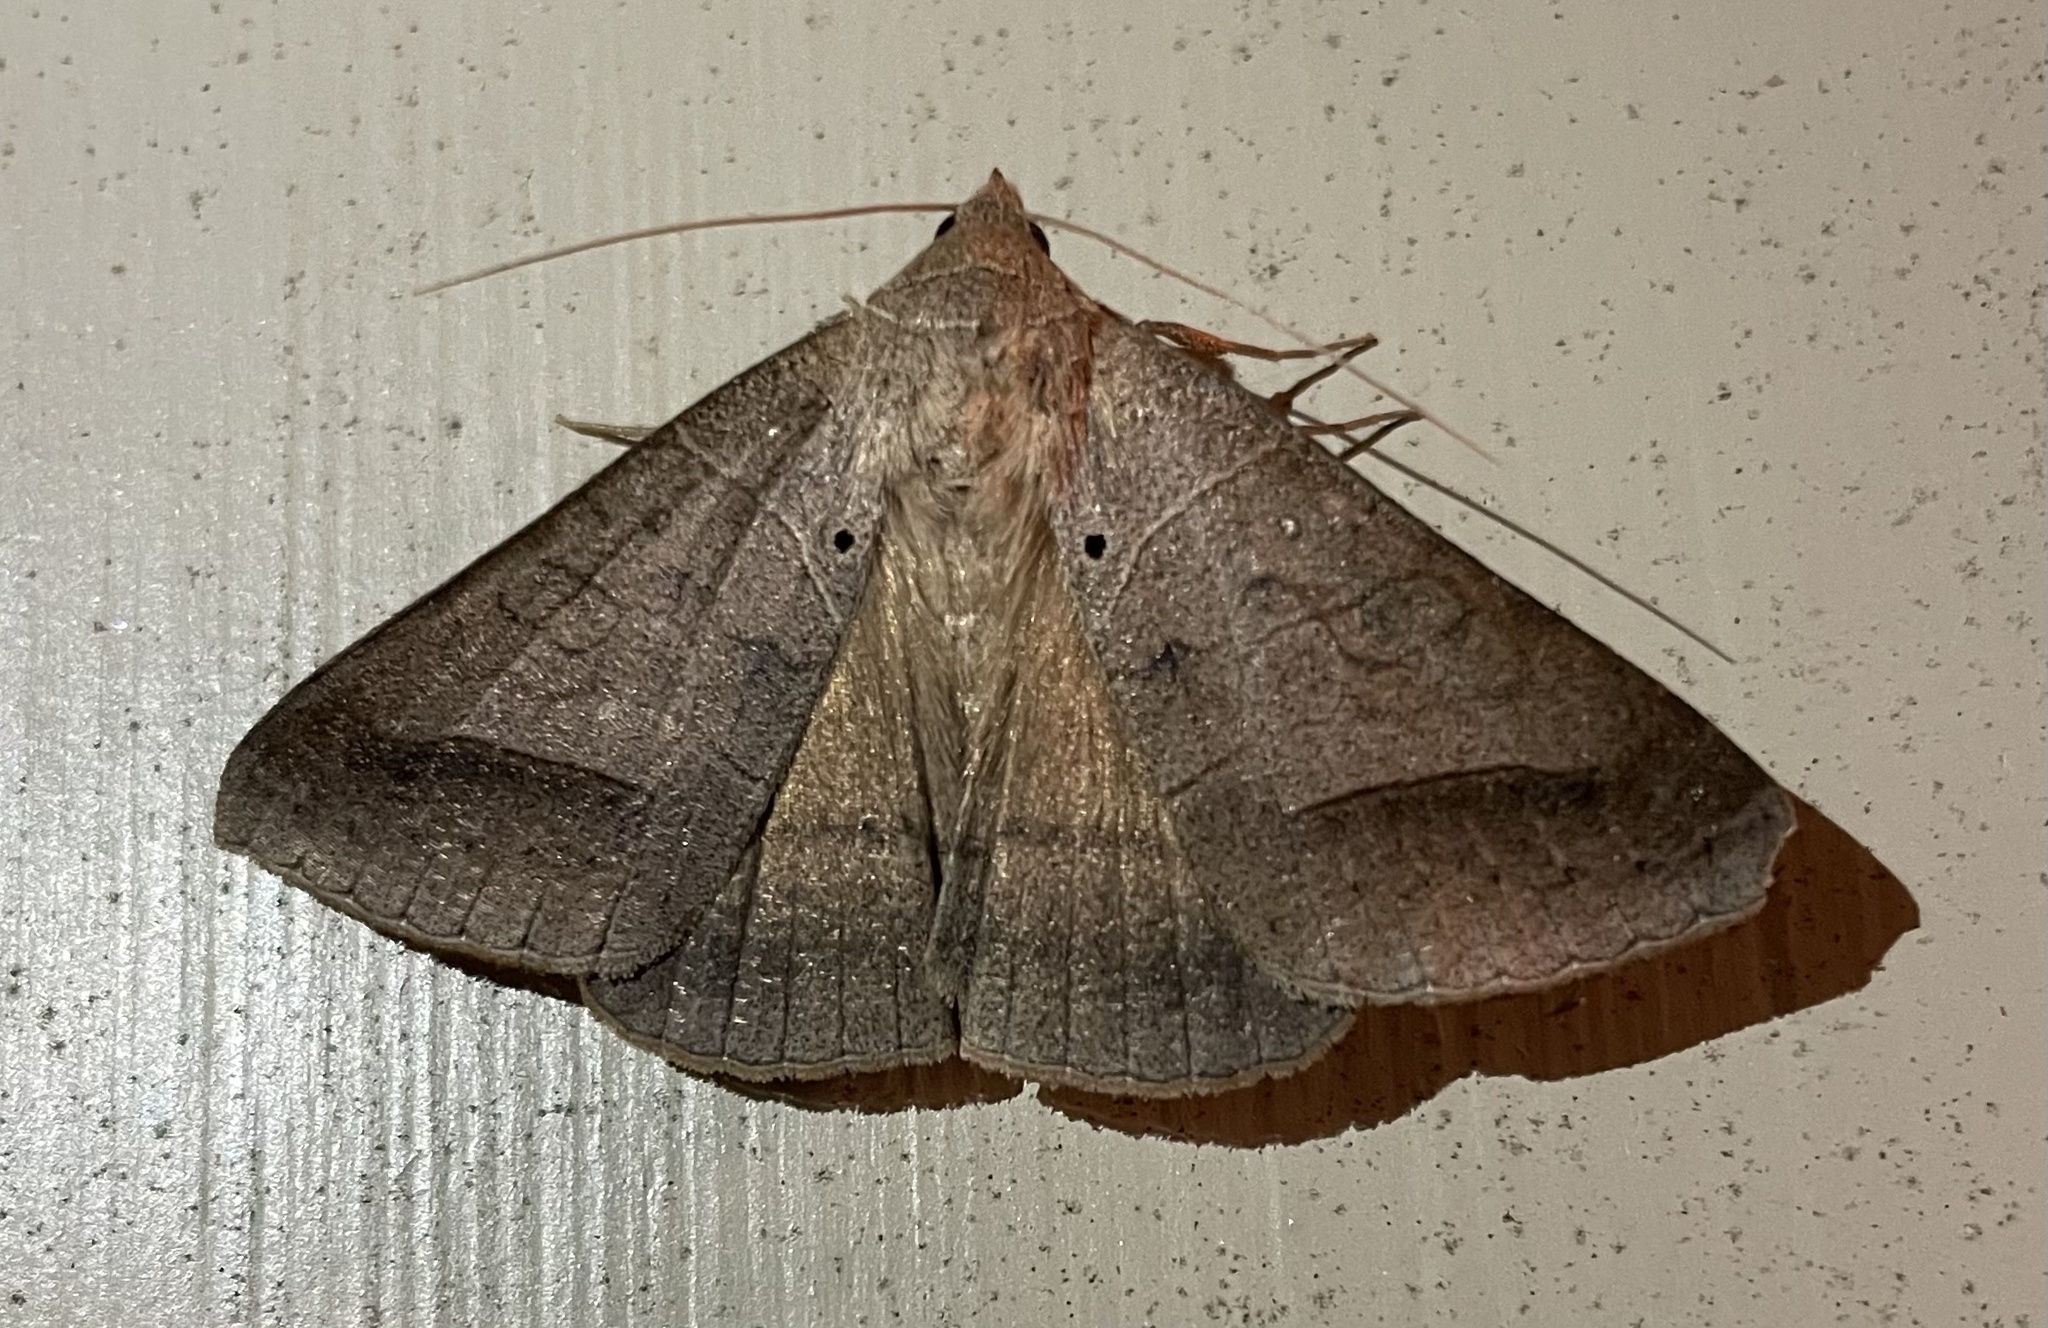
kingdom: Animalia
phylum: Arthropoda
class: Insecta
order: Lepidoptera
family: Erebidae
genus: Mocis
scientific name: Mocis marcida
